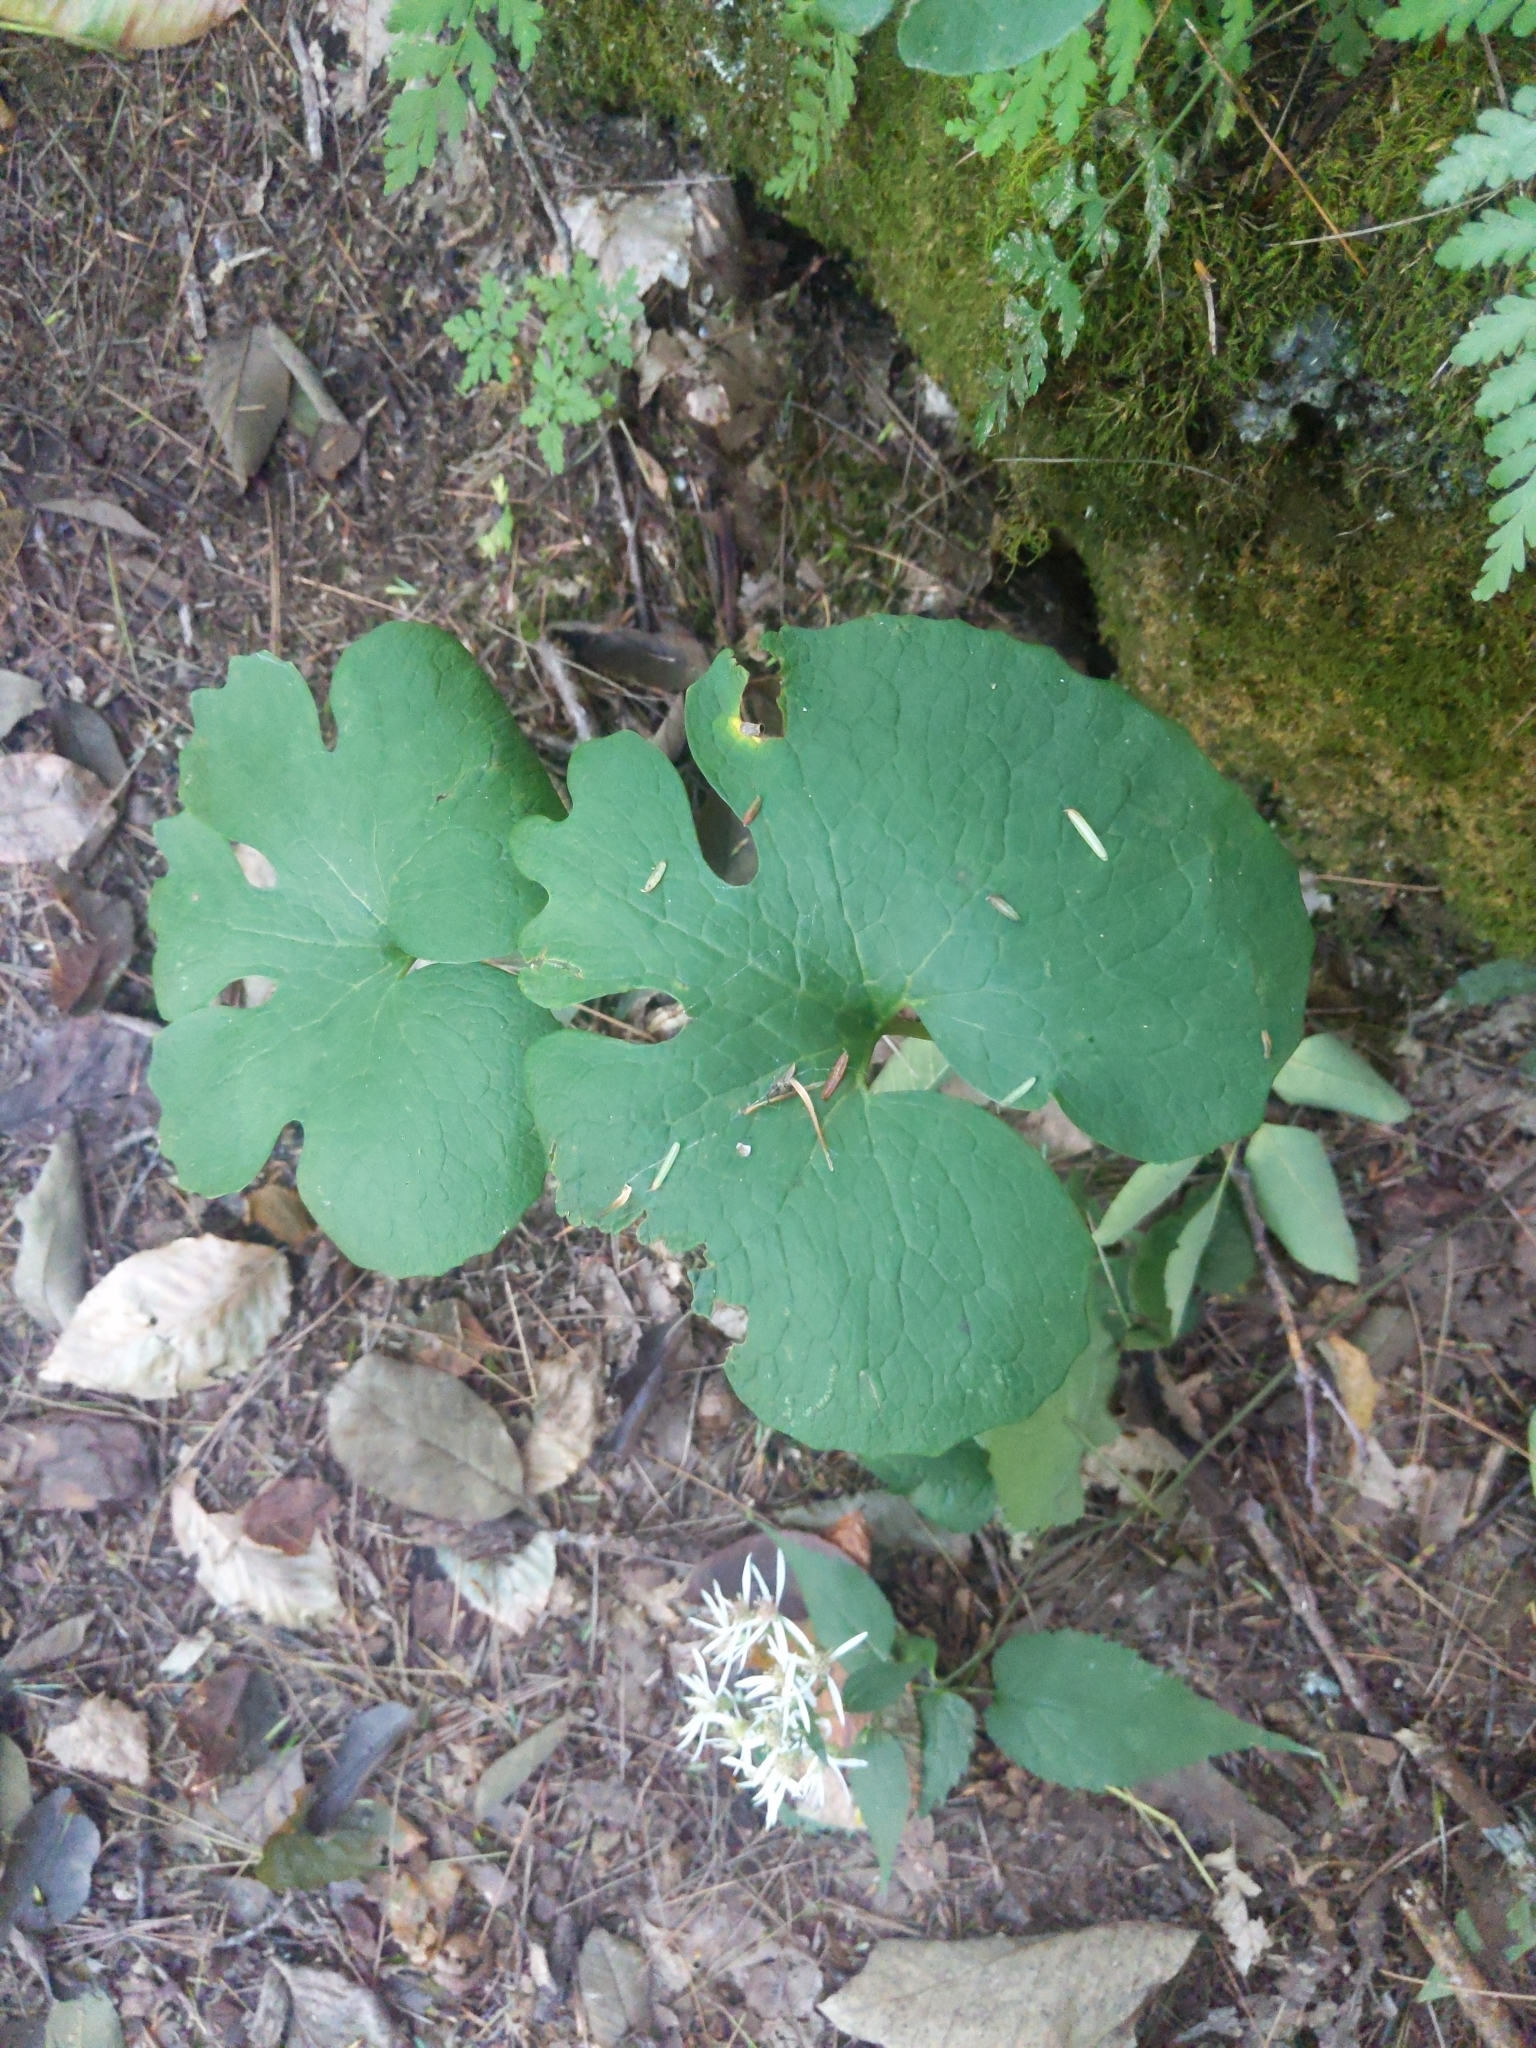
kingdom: Plantae
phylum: Tracheophyta
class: Magnoliopsida
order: Ranunculales
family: Papaveraceae
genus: Sanguinaria
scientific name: Sanguinaria canadensis
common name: Bloodroot
